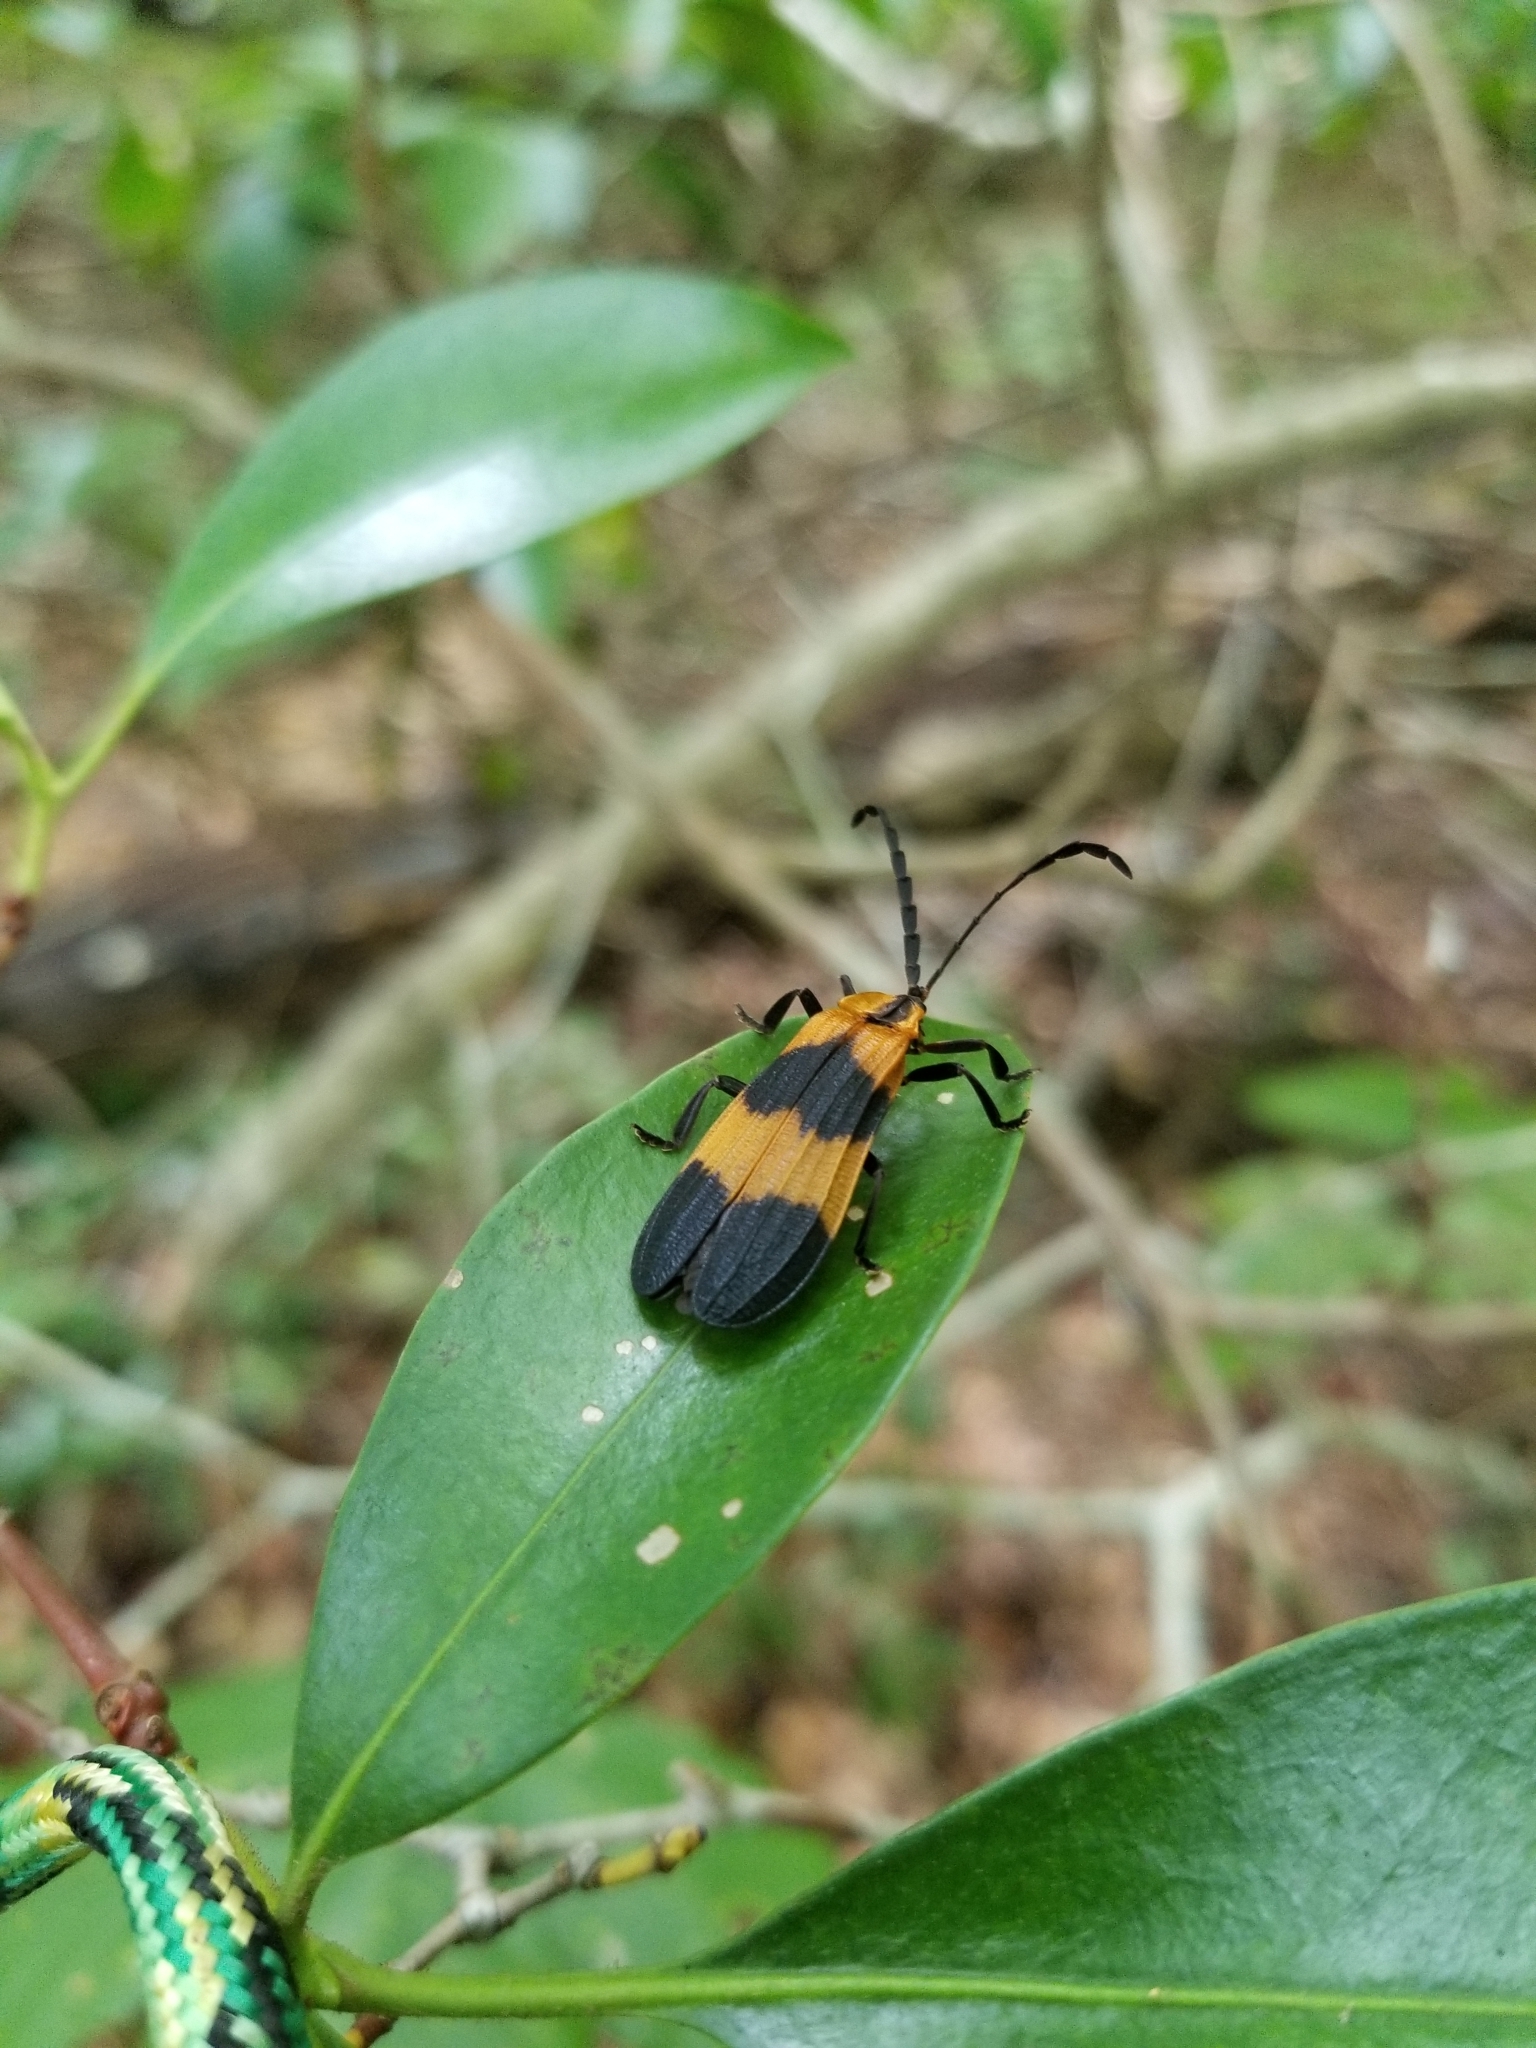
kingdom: Animalia
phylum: Arthropoda
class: Insecta
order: Coleoptera
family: Lycidae
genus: Calopteron
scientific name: Calopteron reticulatum
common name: Banded net-winged beetle
